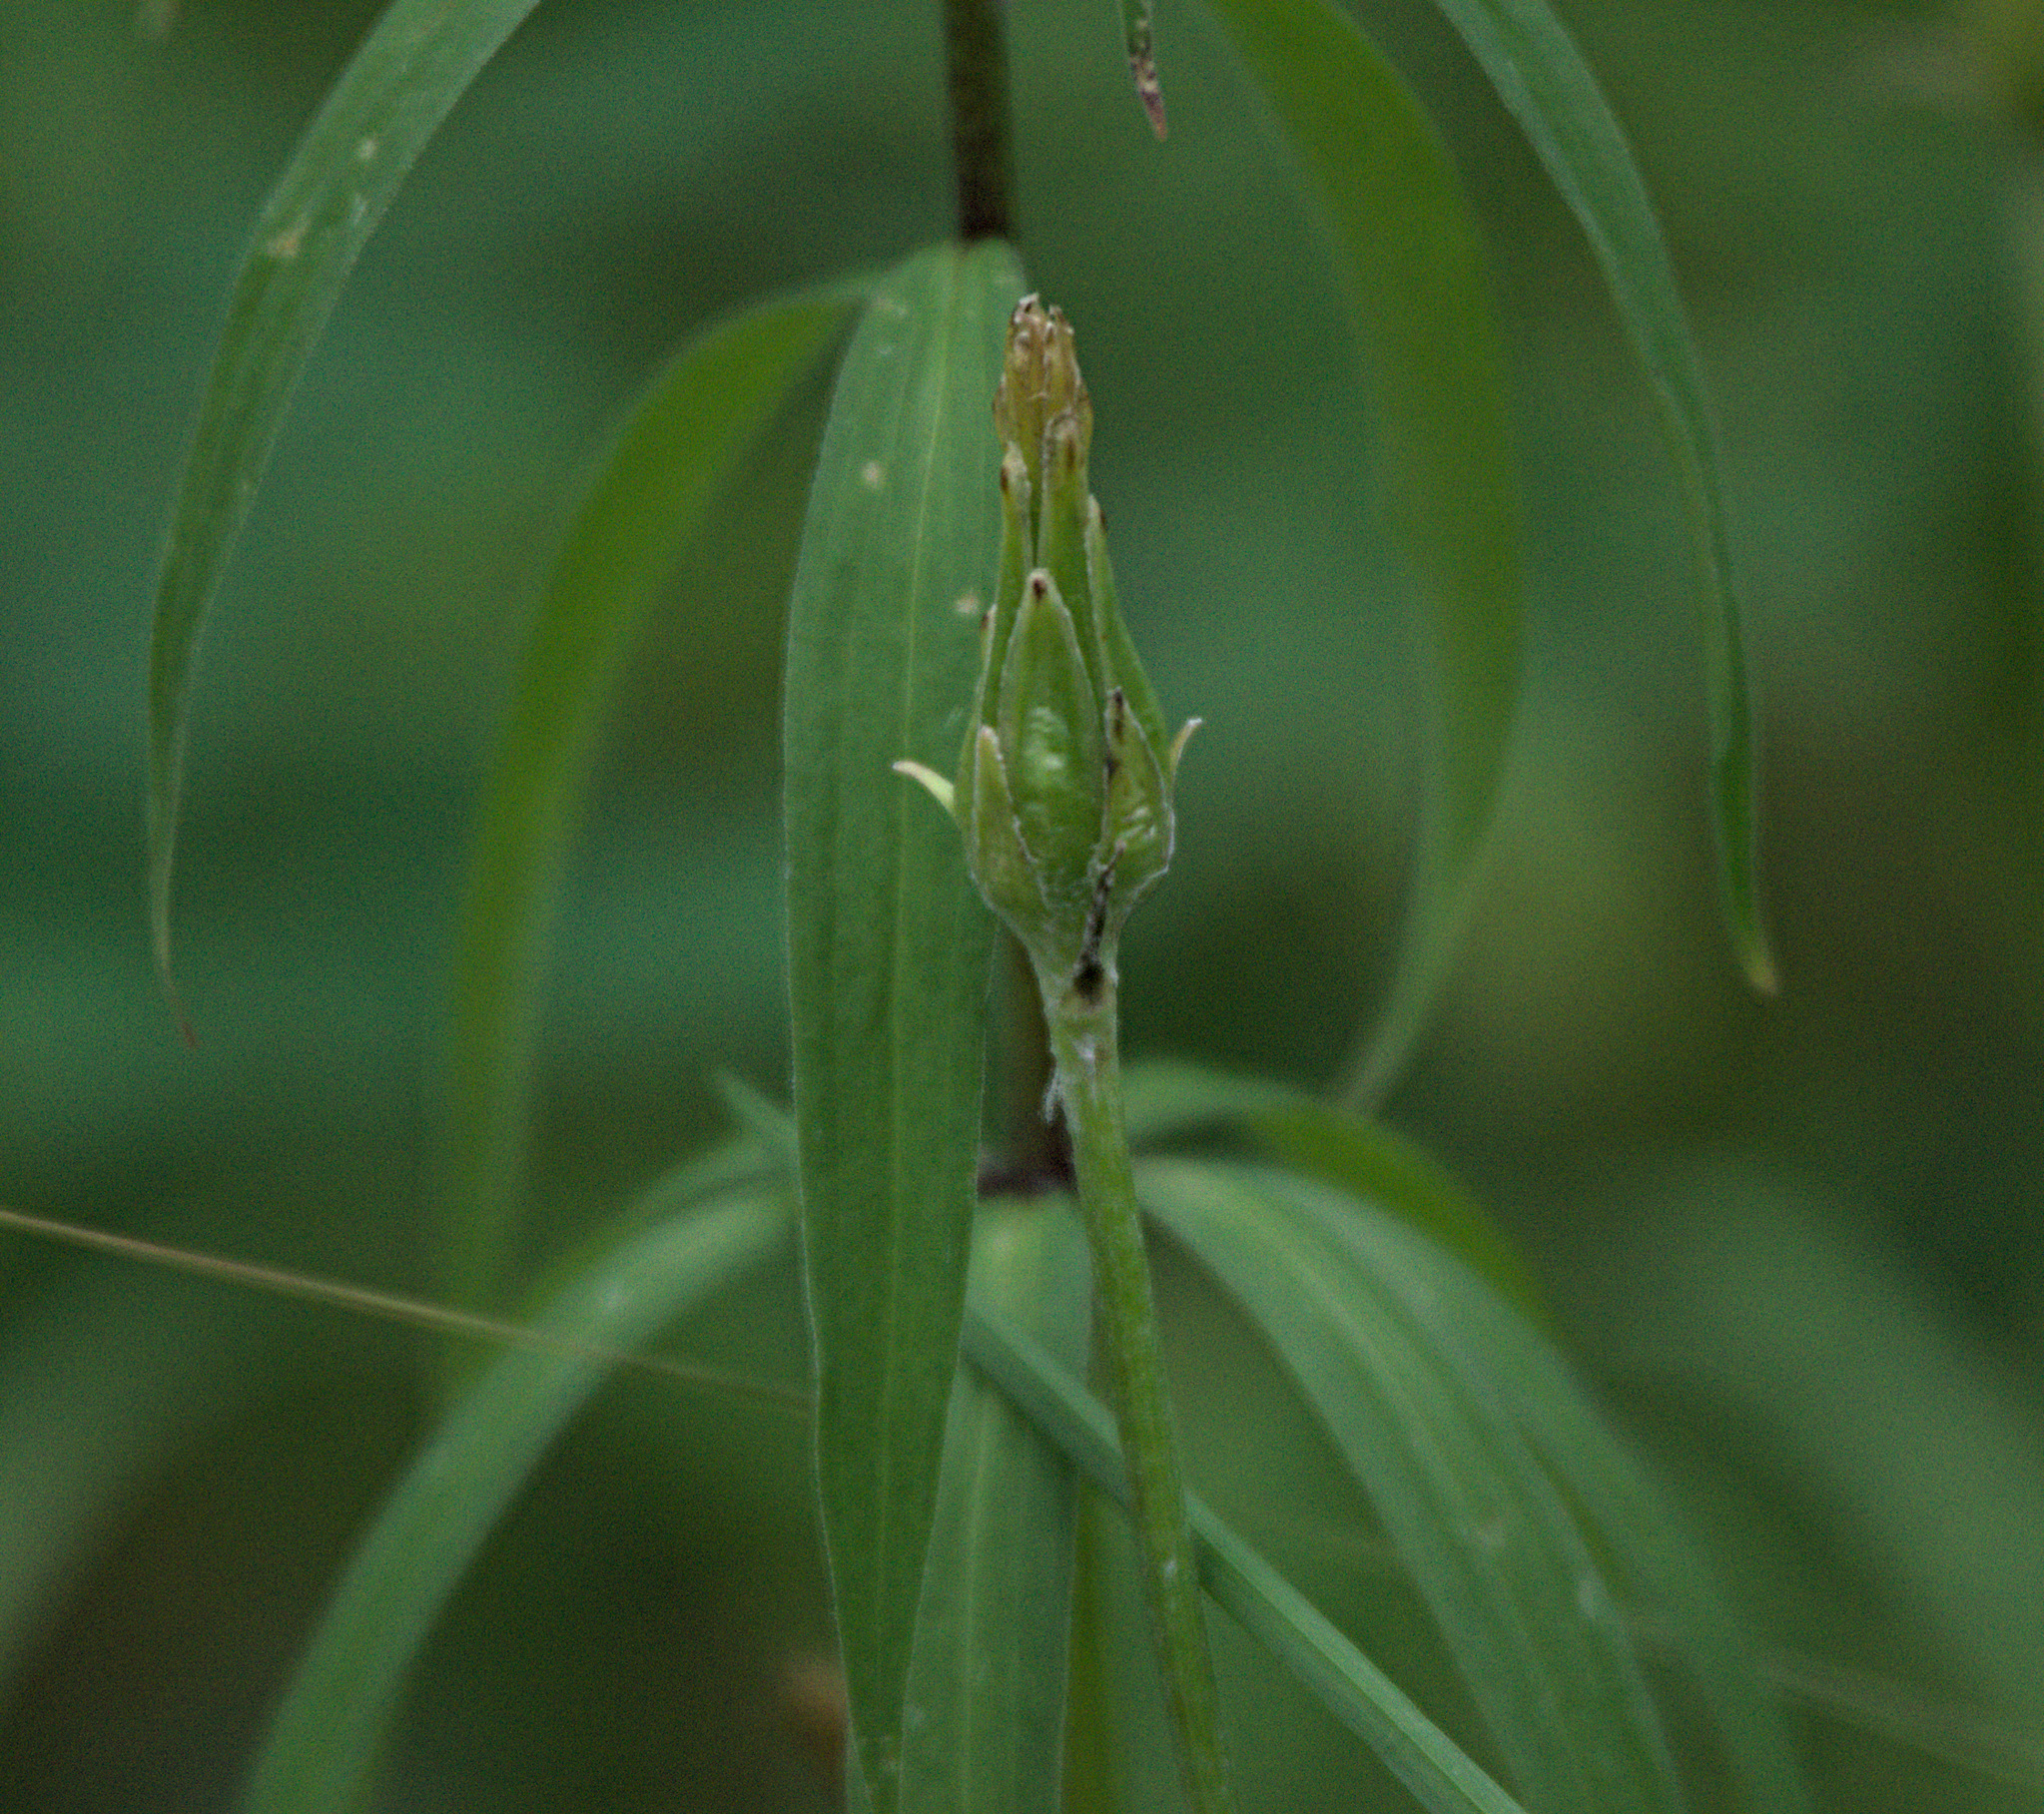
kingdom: Plantae
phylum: Tracheophyta
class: Liliopsida
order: Liliales
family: Liliaceae
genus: Lilium
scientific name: Lilium martagon
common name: Martagon lily
